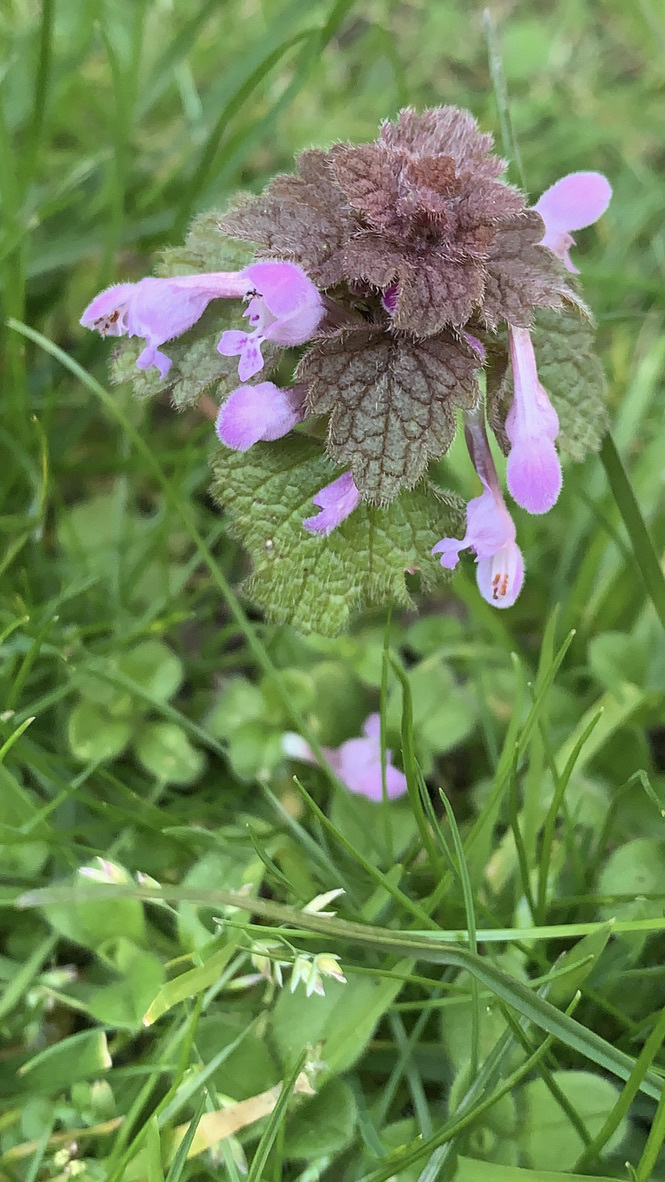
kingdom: Plantae
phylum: Tracheophyta
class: Magnoliopsida
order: Lamiales
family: Lamiaceae
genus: Lamium
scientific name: Lamium purpureum
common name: Red dead-nettle
